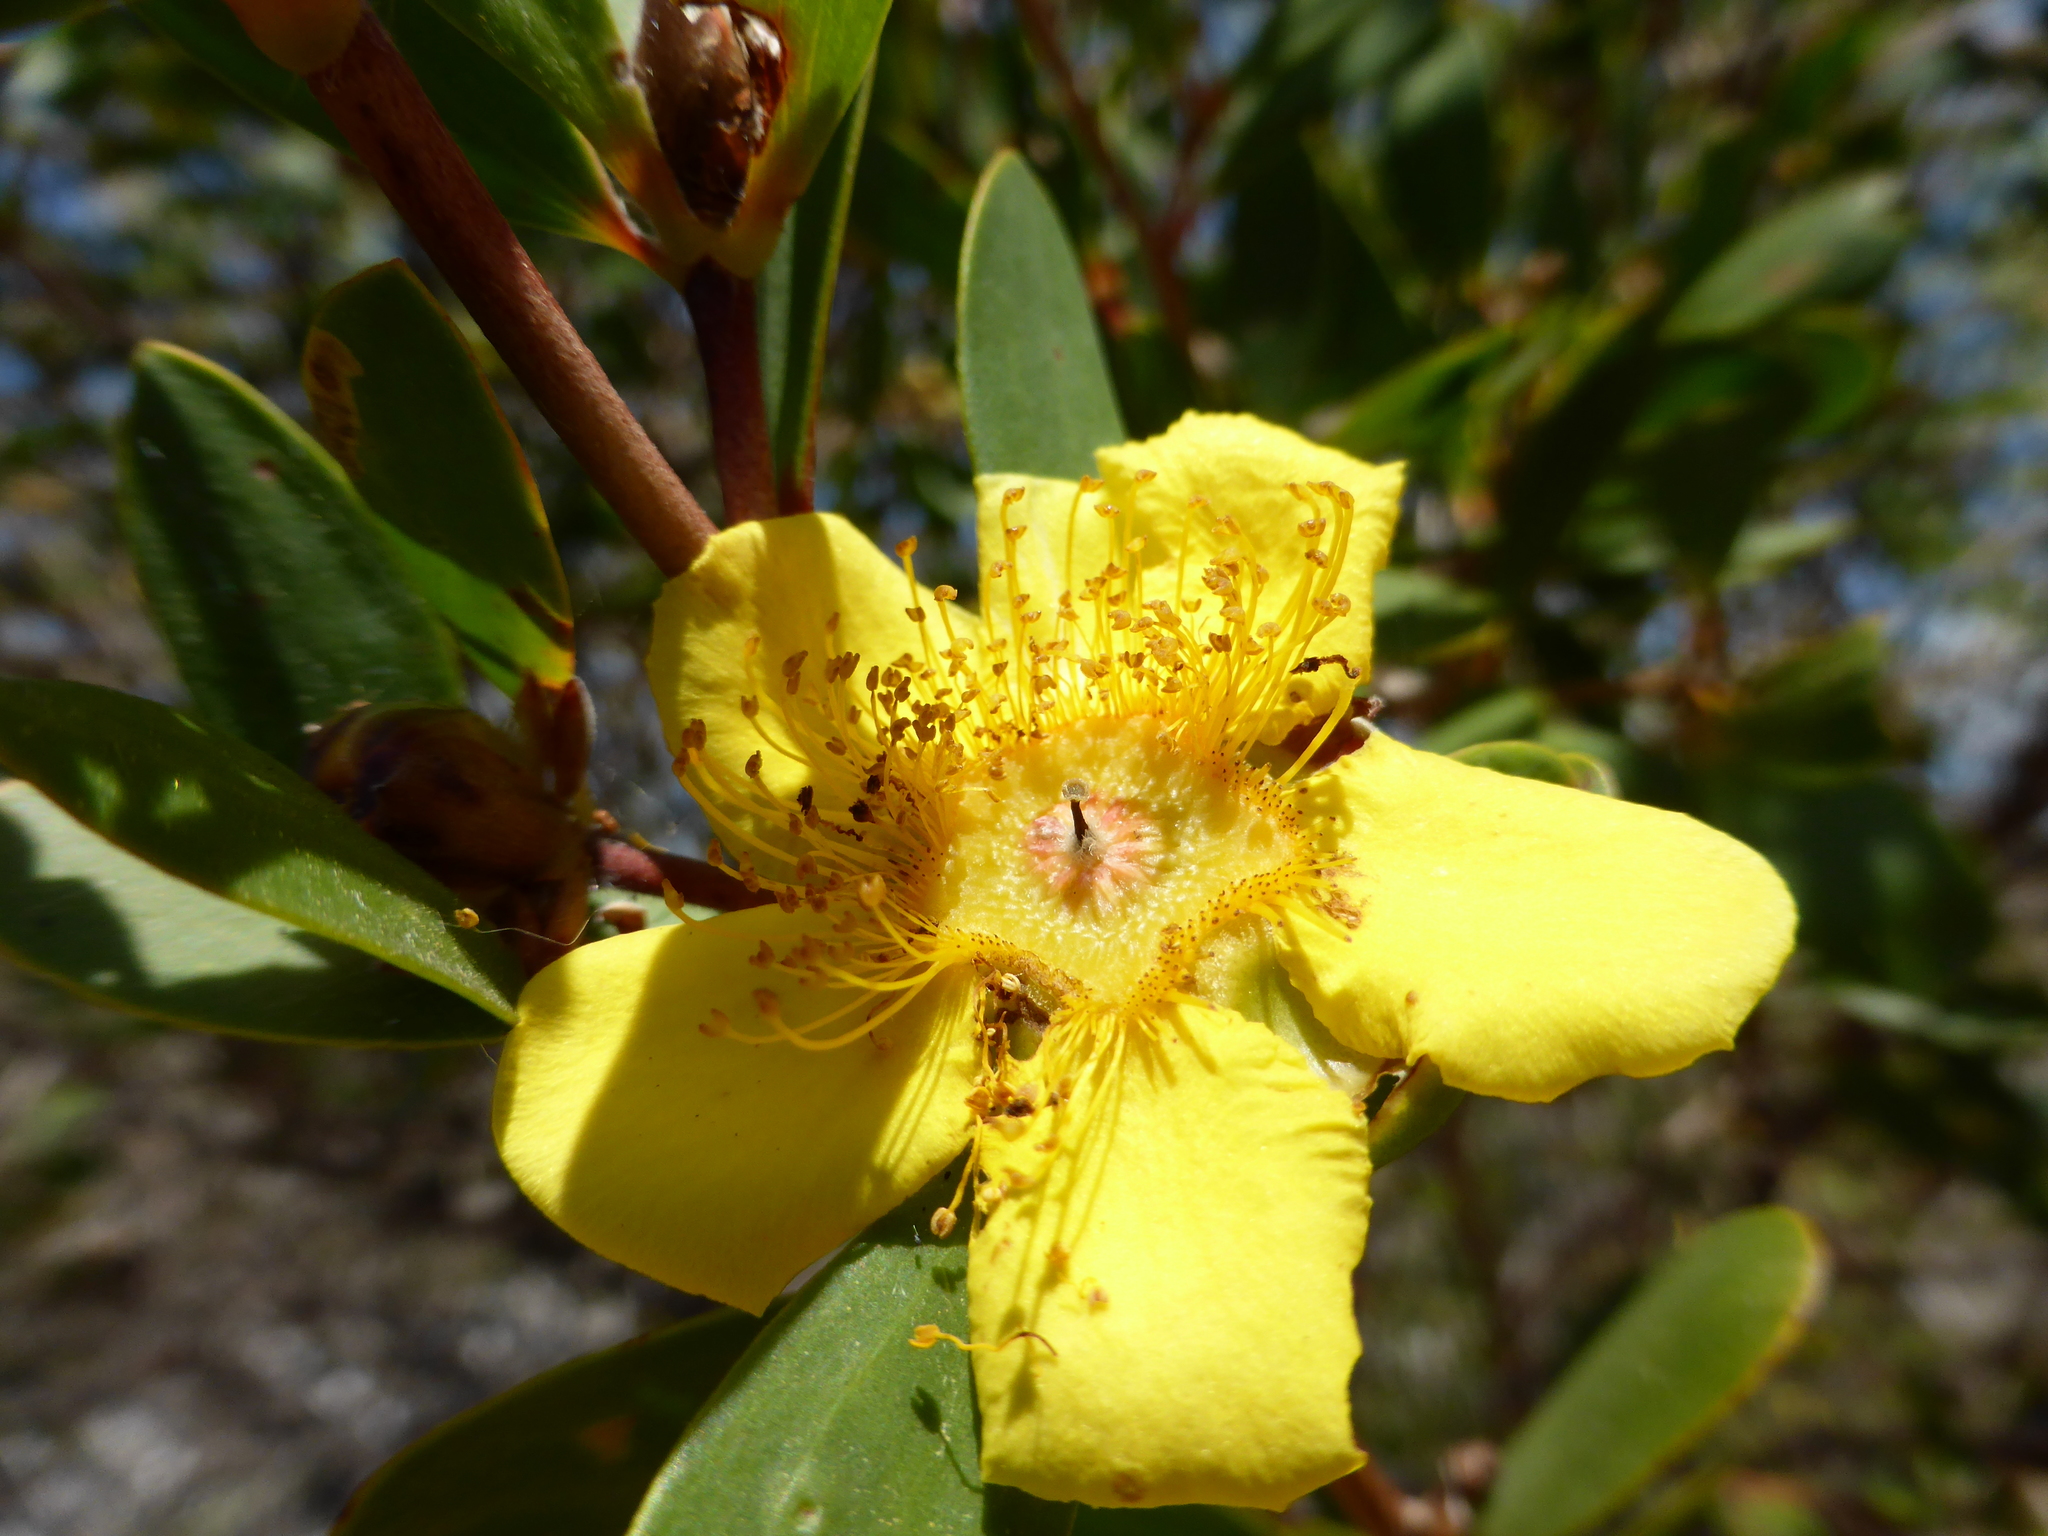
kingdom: Plantae
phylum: Tracheophyta
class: Magnoliopsida
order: Myrtales
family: Myrtaceae
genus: Neofabricia
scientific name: Neofabricia myrtifolia
